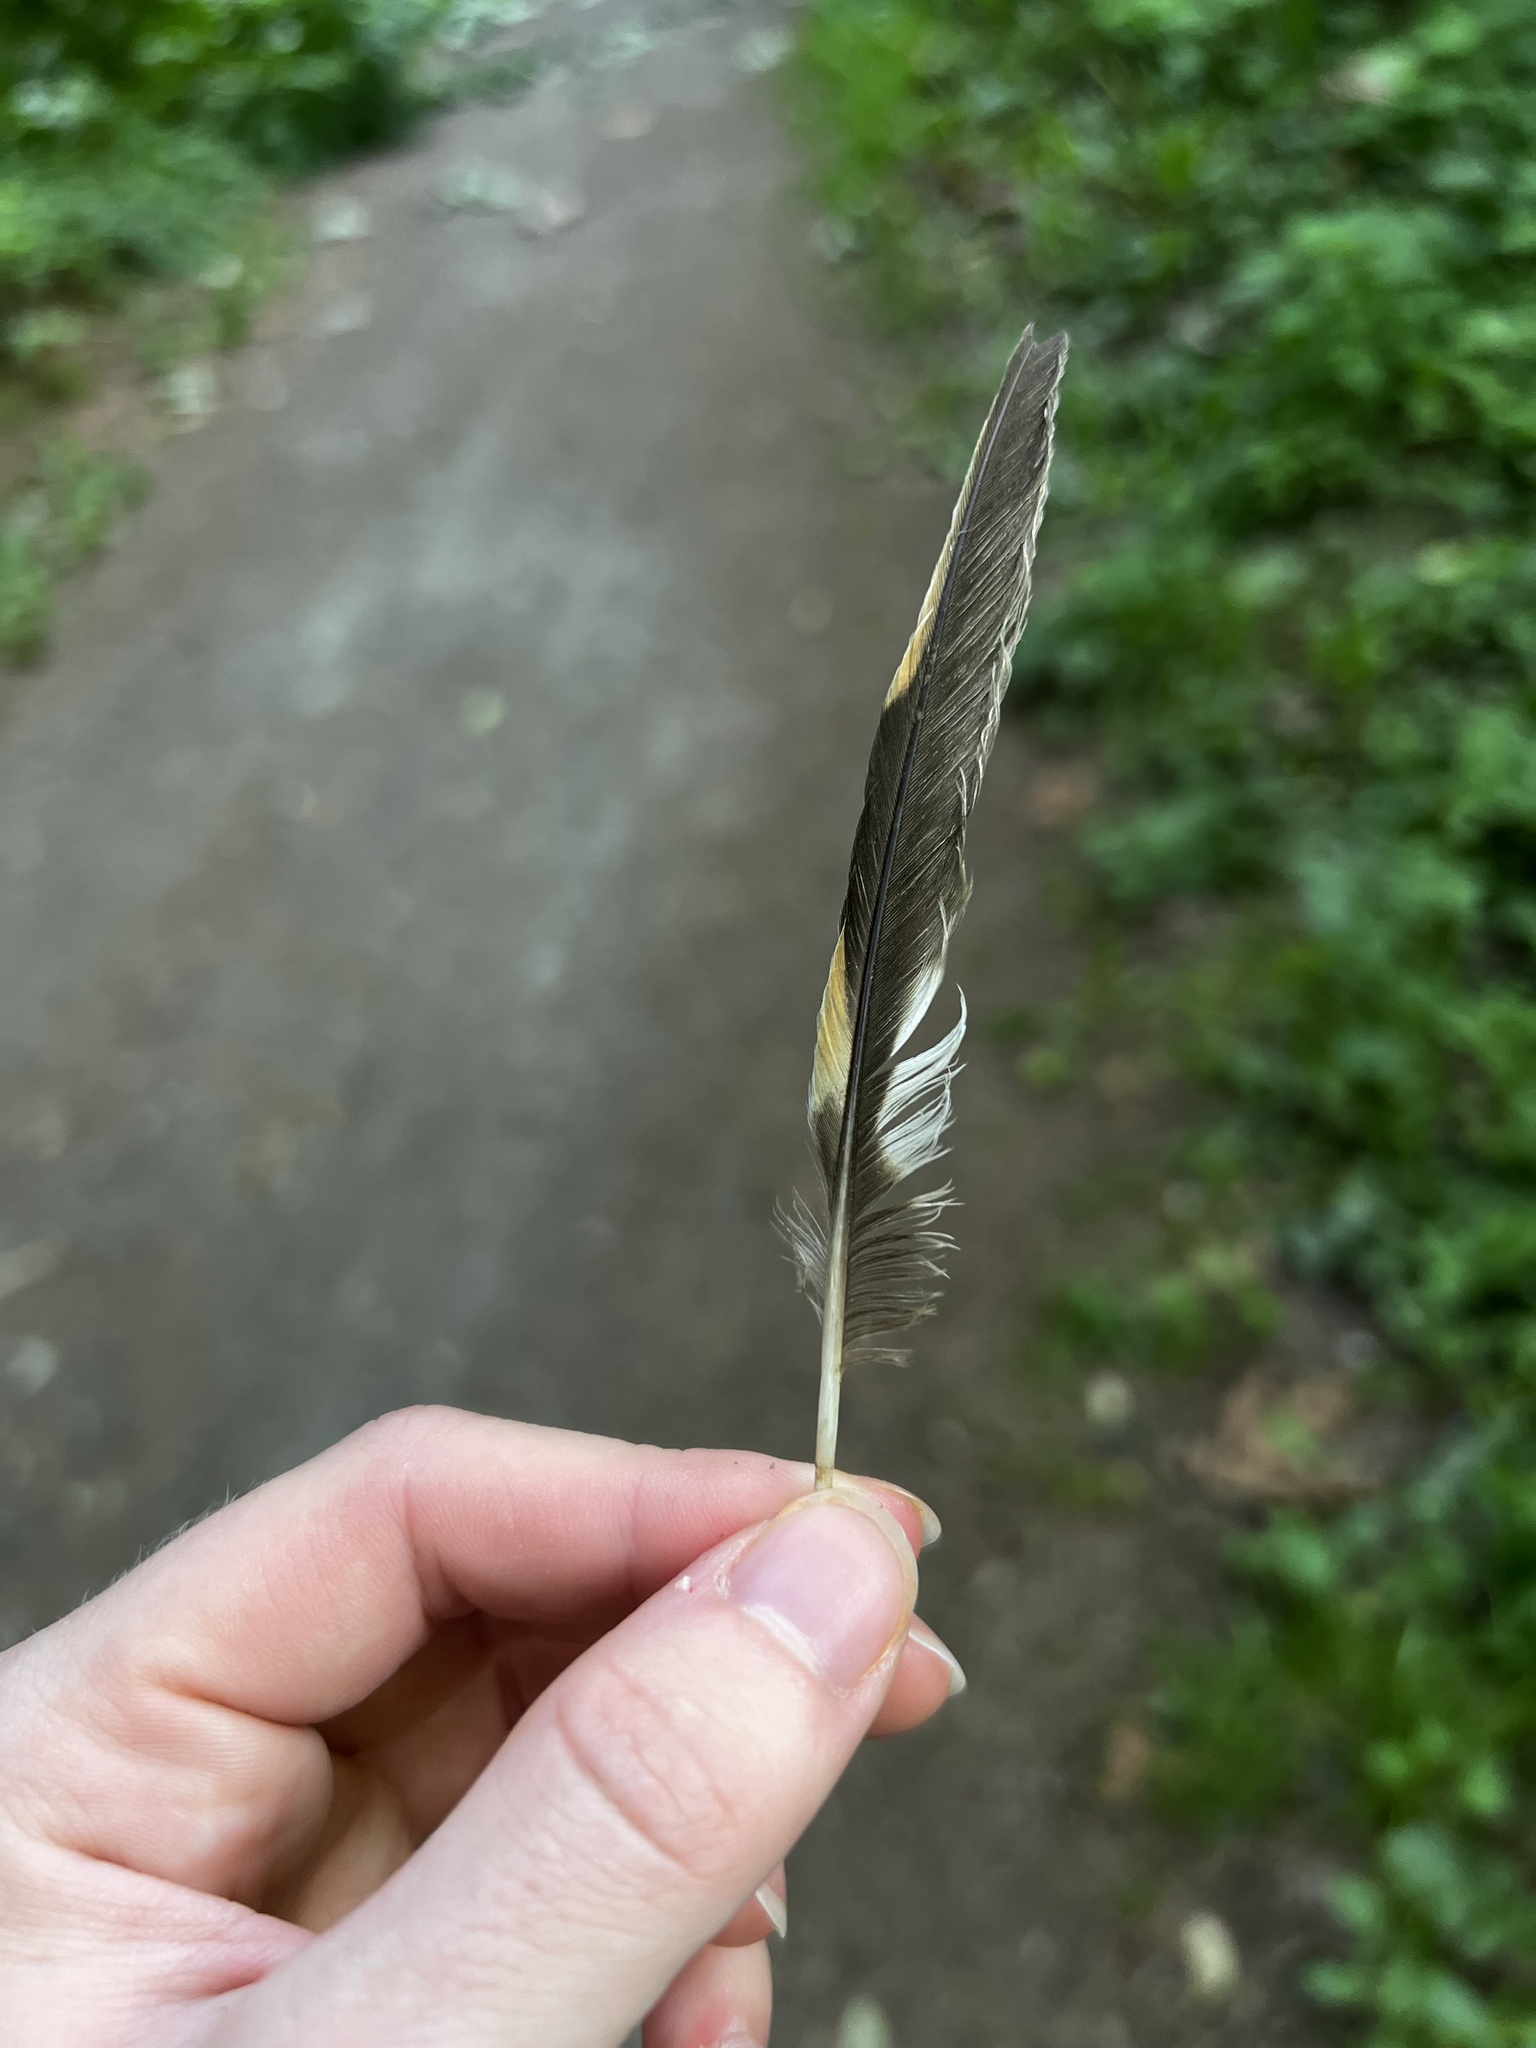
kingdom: Animalia
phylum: Chordata
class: Aves
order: Passeriformes
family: Turdidae
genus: Ixoreus
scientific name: Ixoreus naevius
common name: Varied thrush
